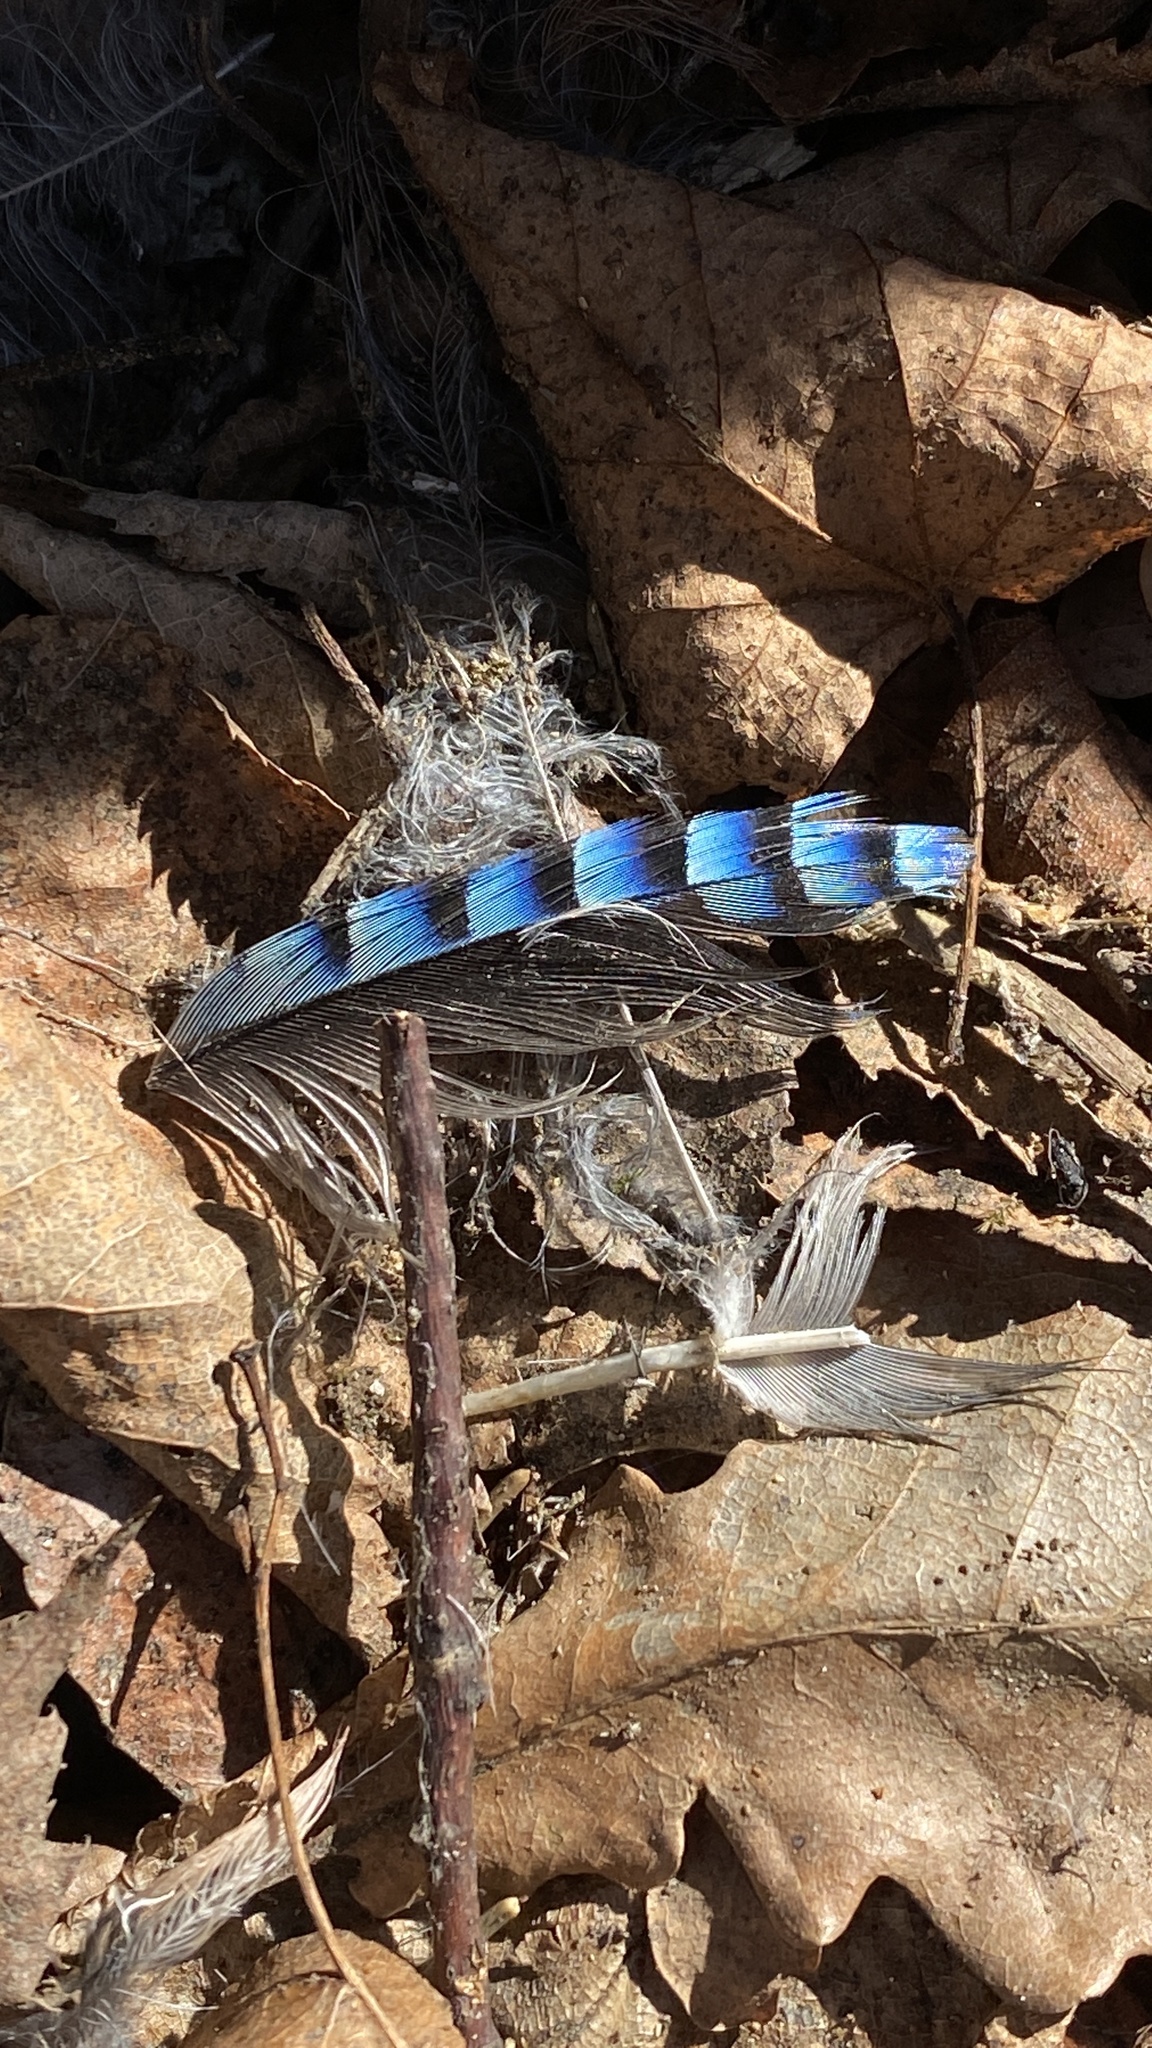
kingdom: Animalia
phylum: Chordata
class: Aves
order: Passeriformes
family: Corvidae
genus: Garrulus
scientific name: Garrulus glandarius
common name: Eurasian jay
